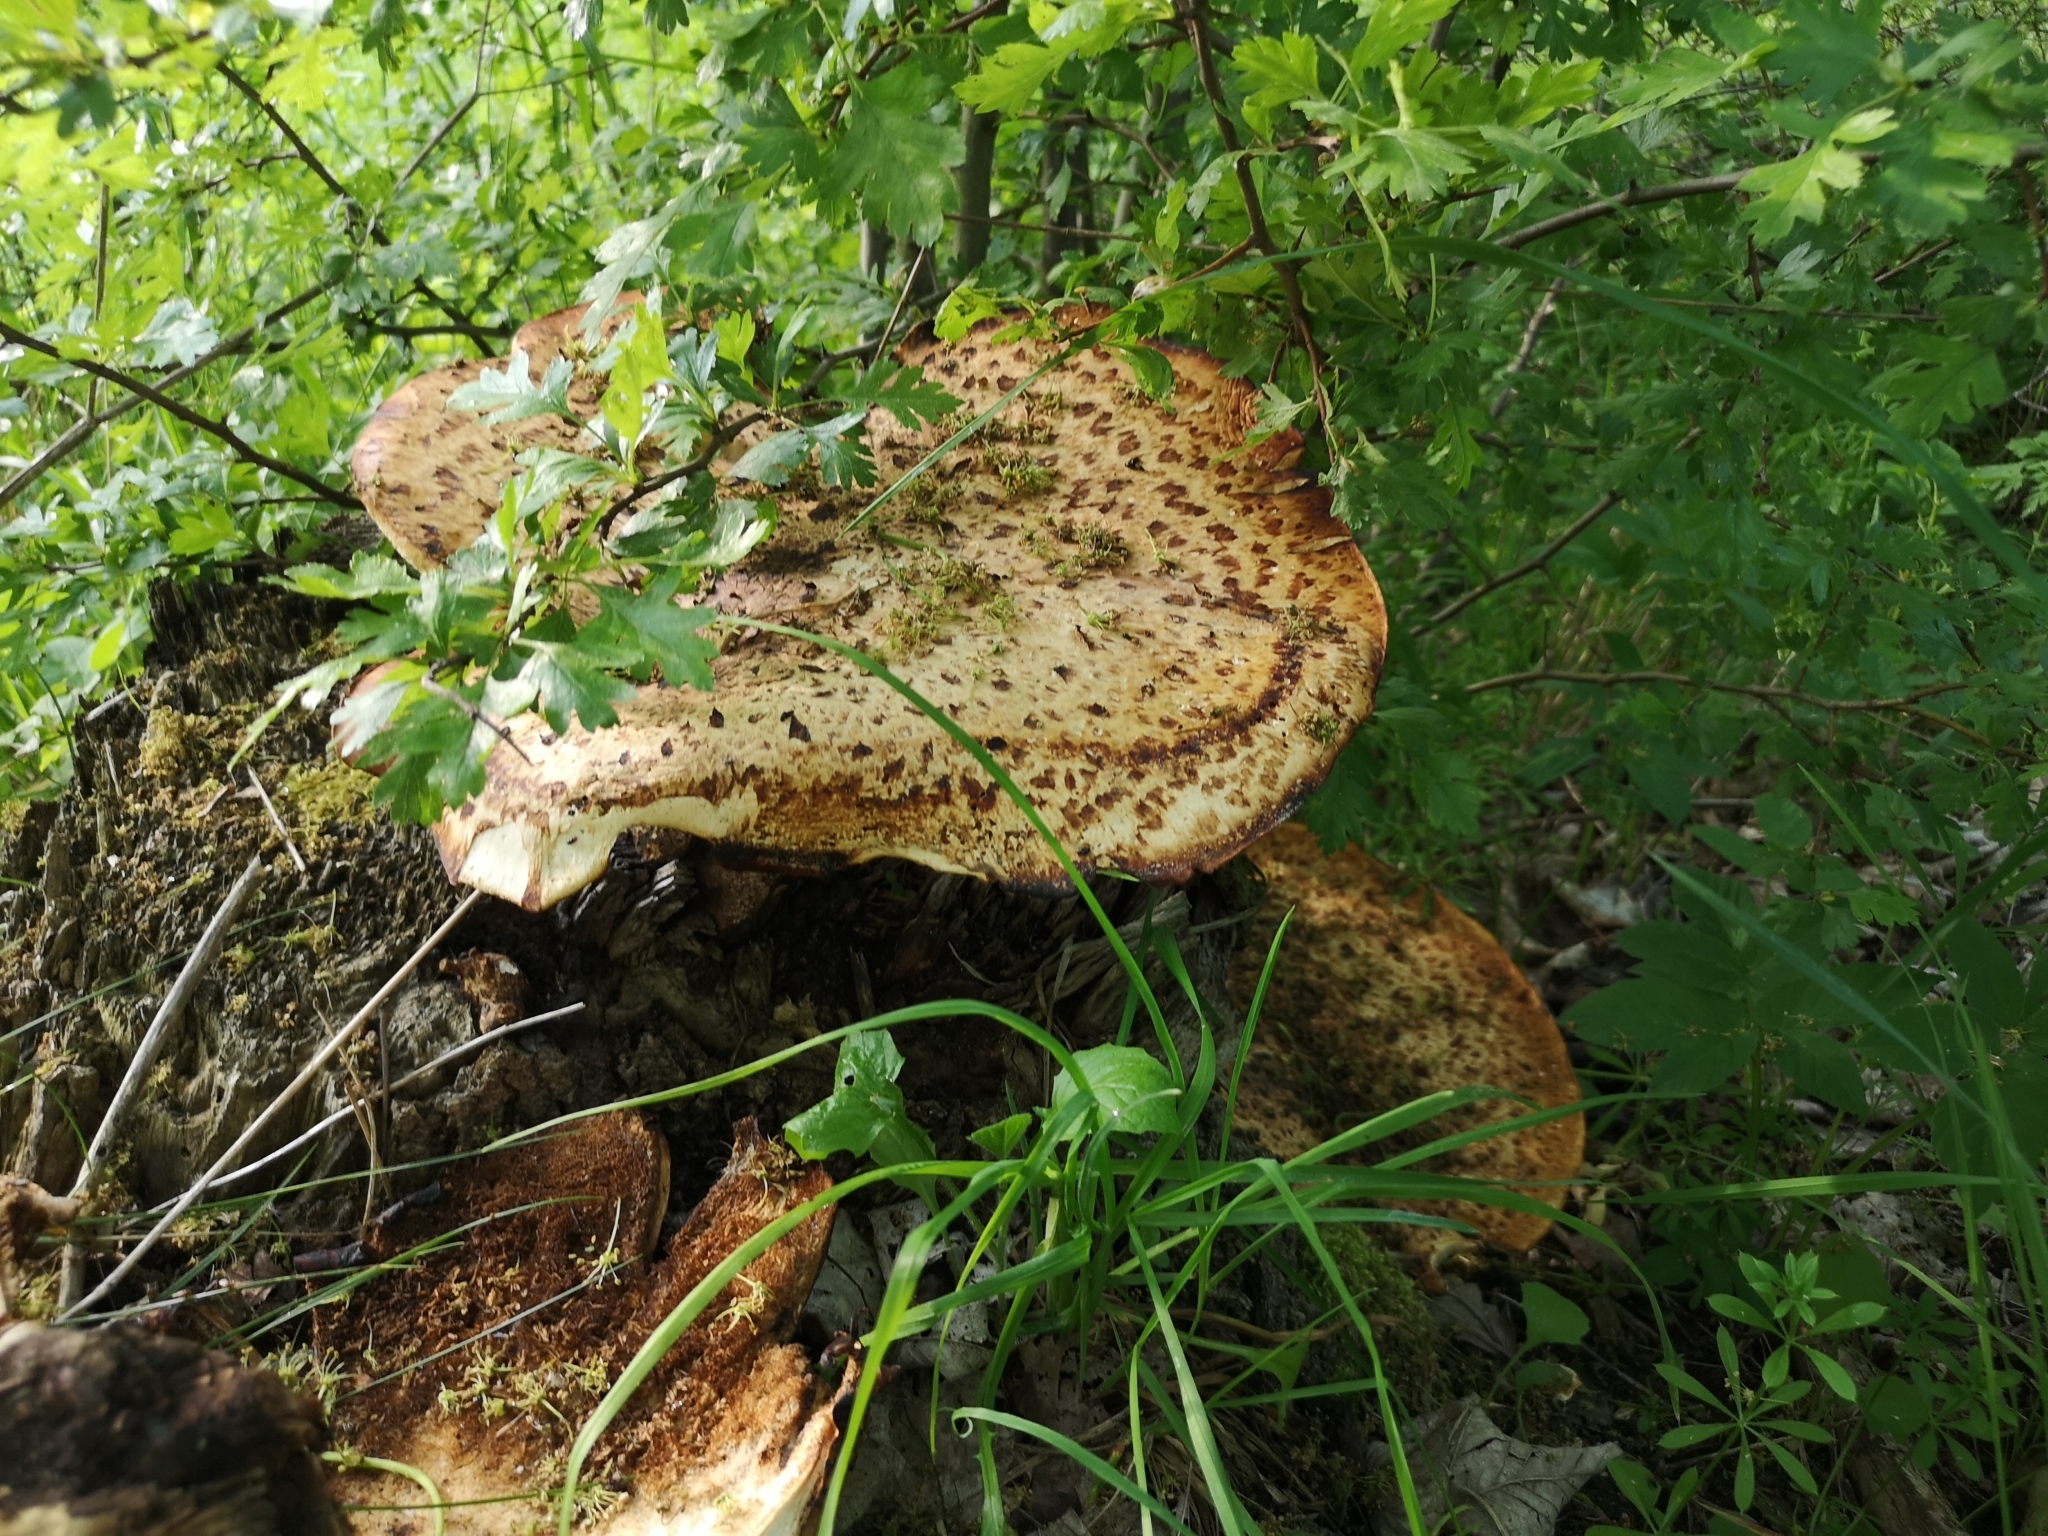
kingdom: Fungi
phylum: Basidiomycota
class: Agaricomycetes
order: Polyporales
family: Polyporaceae
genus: Cerioporus
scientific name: Cerioporus squamosus
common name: Dryad's saddle
